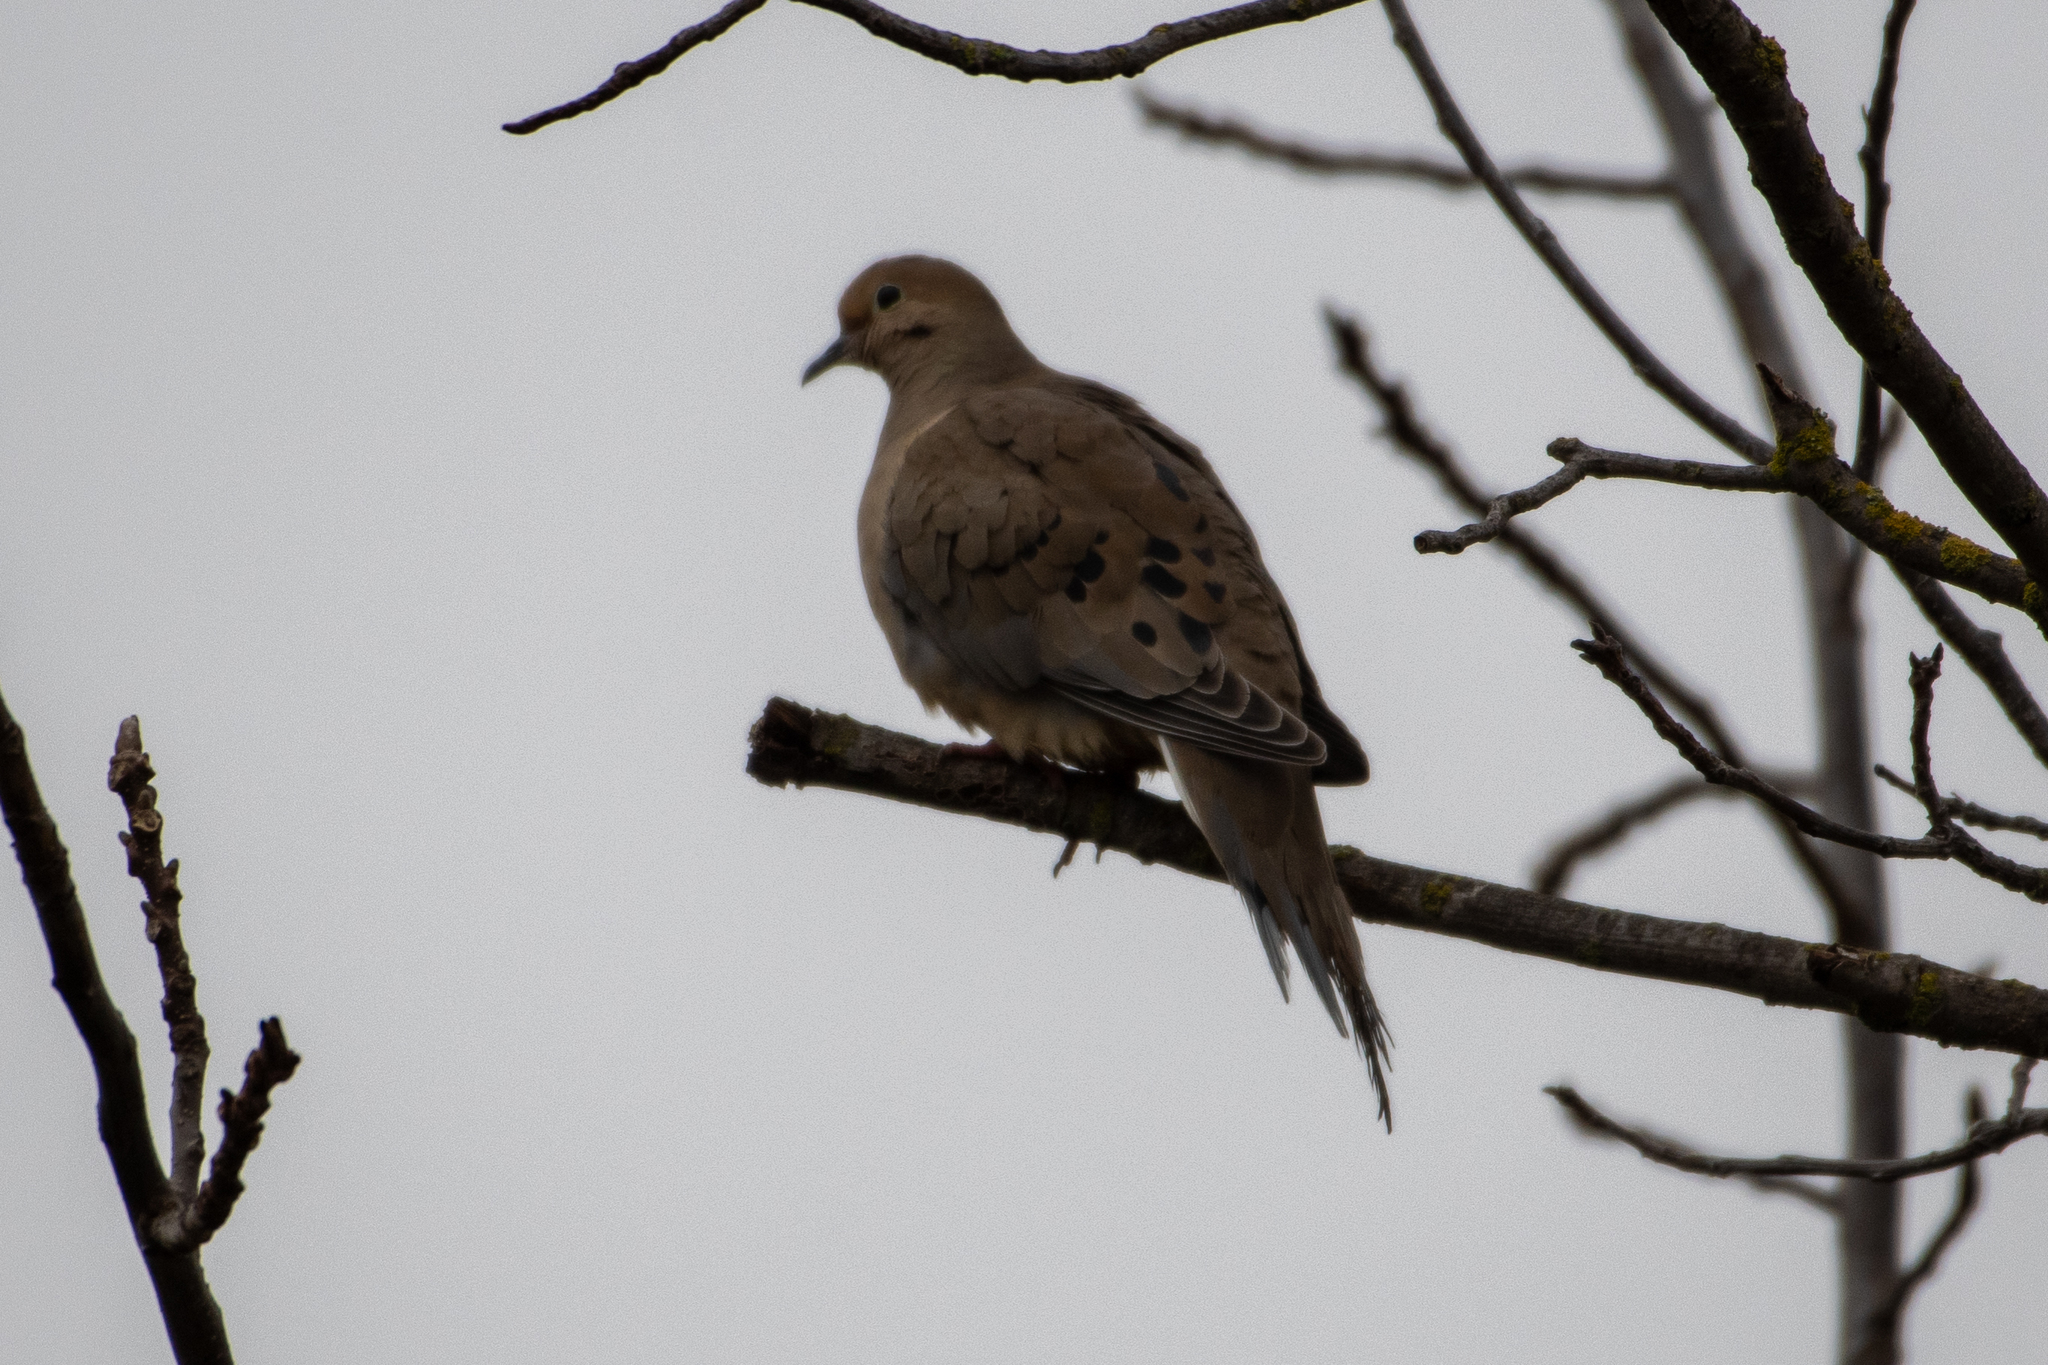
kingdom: Animalia
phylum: Chordata
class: Aves
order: Columbiformes
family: Columbidae
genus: Zenaida
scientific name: Zenaida macroura
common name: Mourning dove
